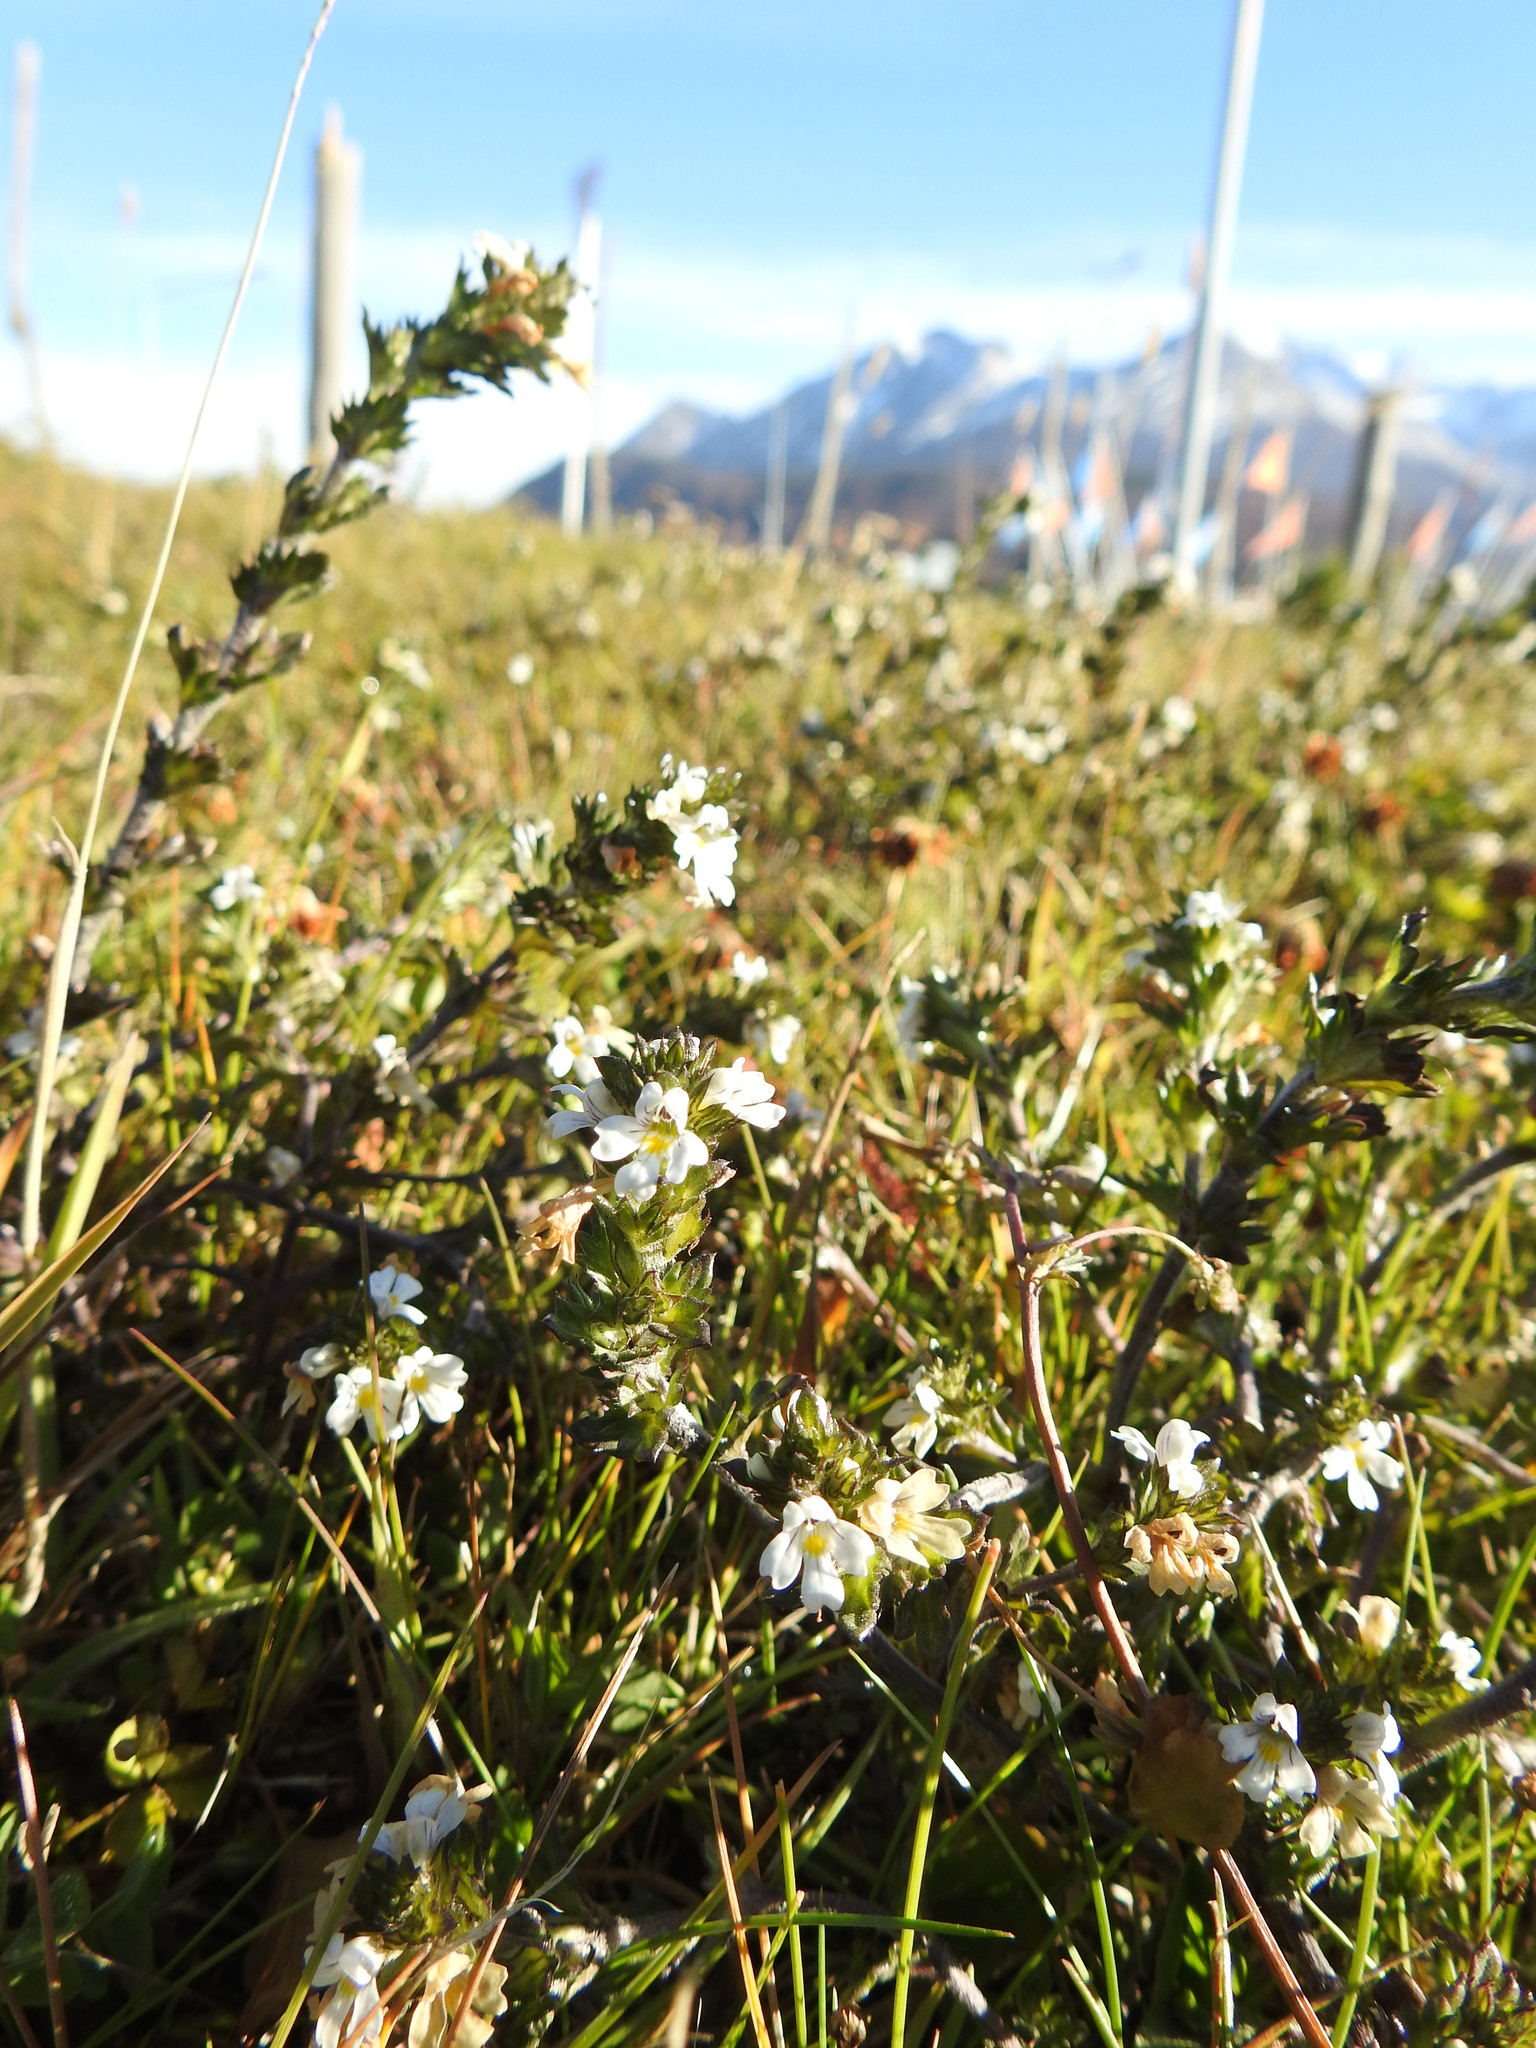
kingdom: Plantae
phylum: Tracheophyta
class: Magnoliopsida
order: Lamiales
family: Orobanchaceae
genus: Euphrasia
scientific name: Euphrasia officinalis
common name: Eyebright
